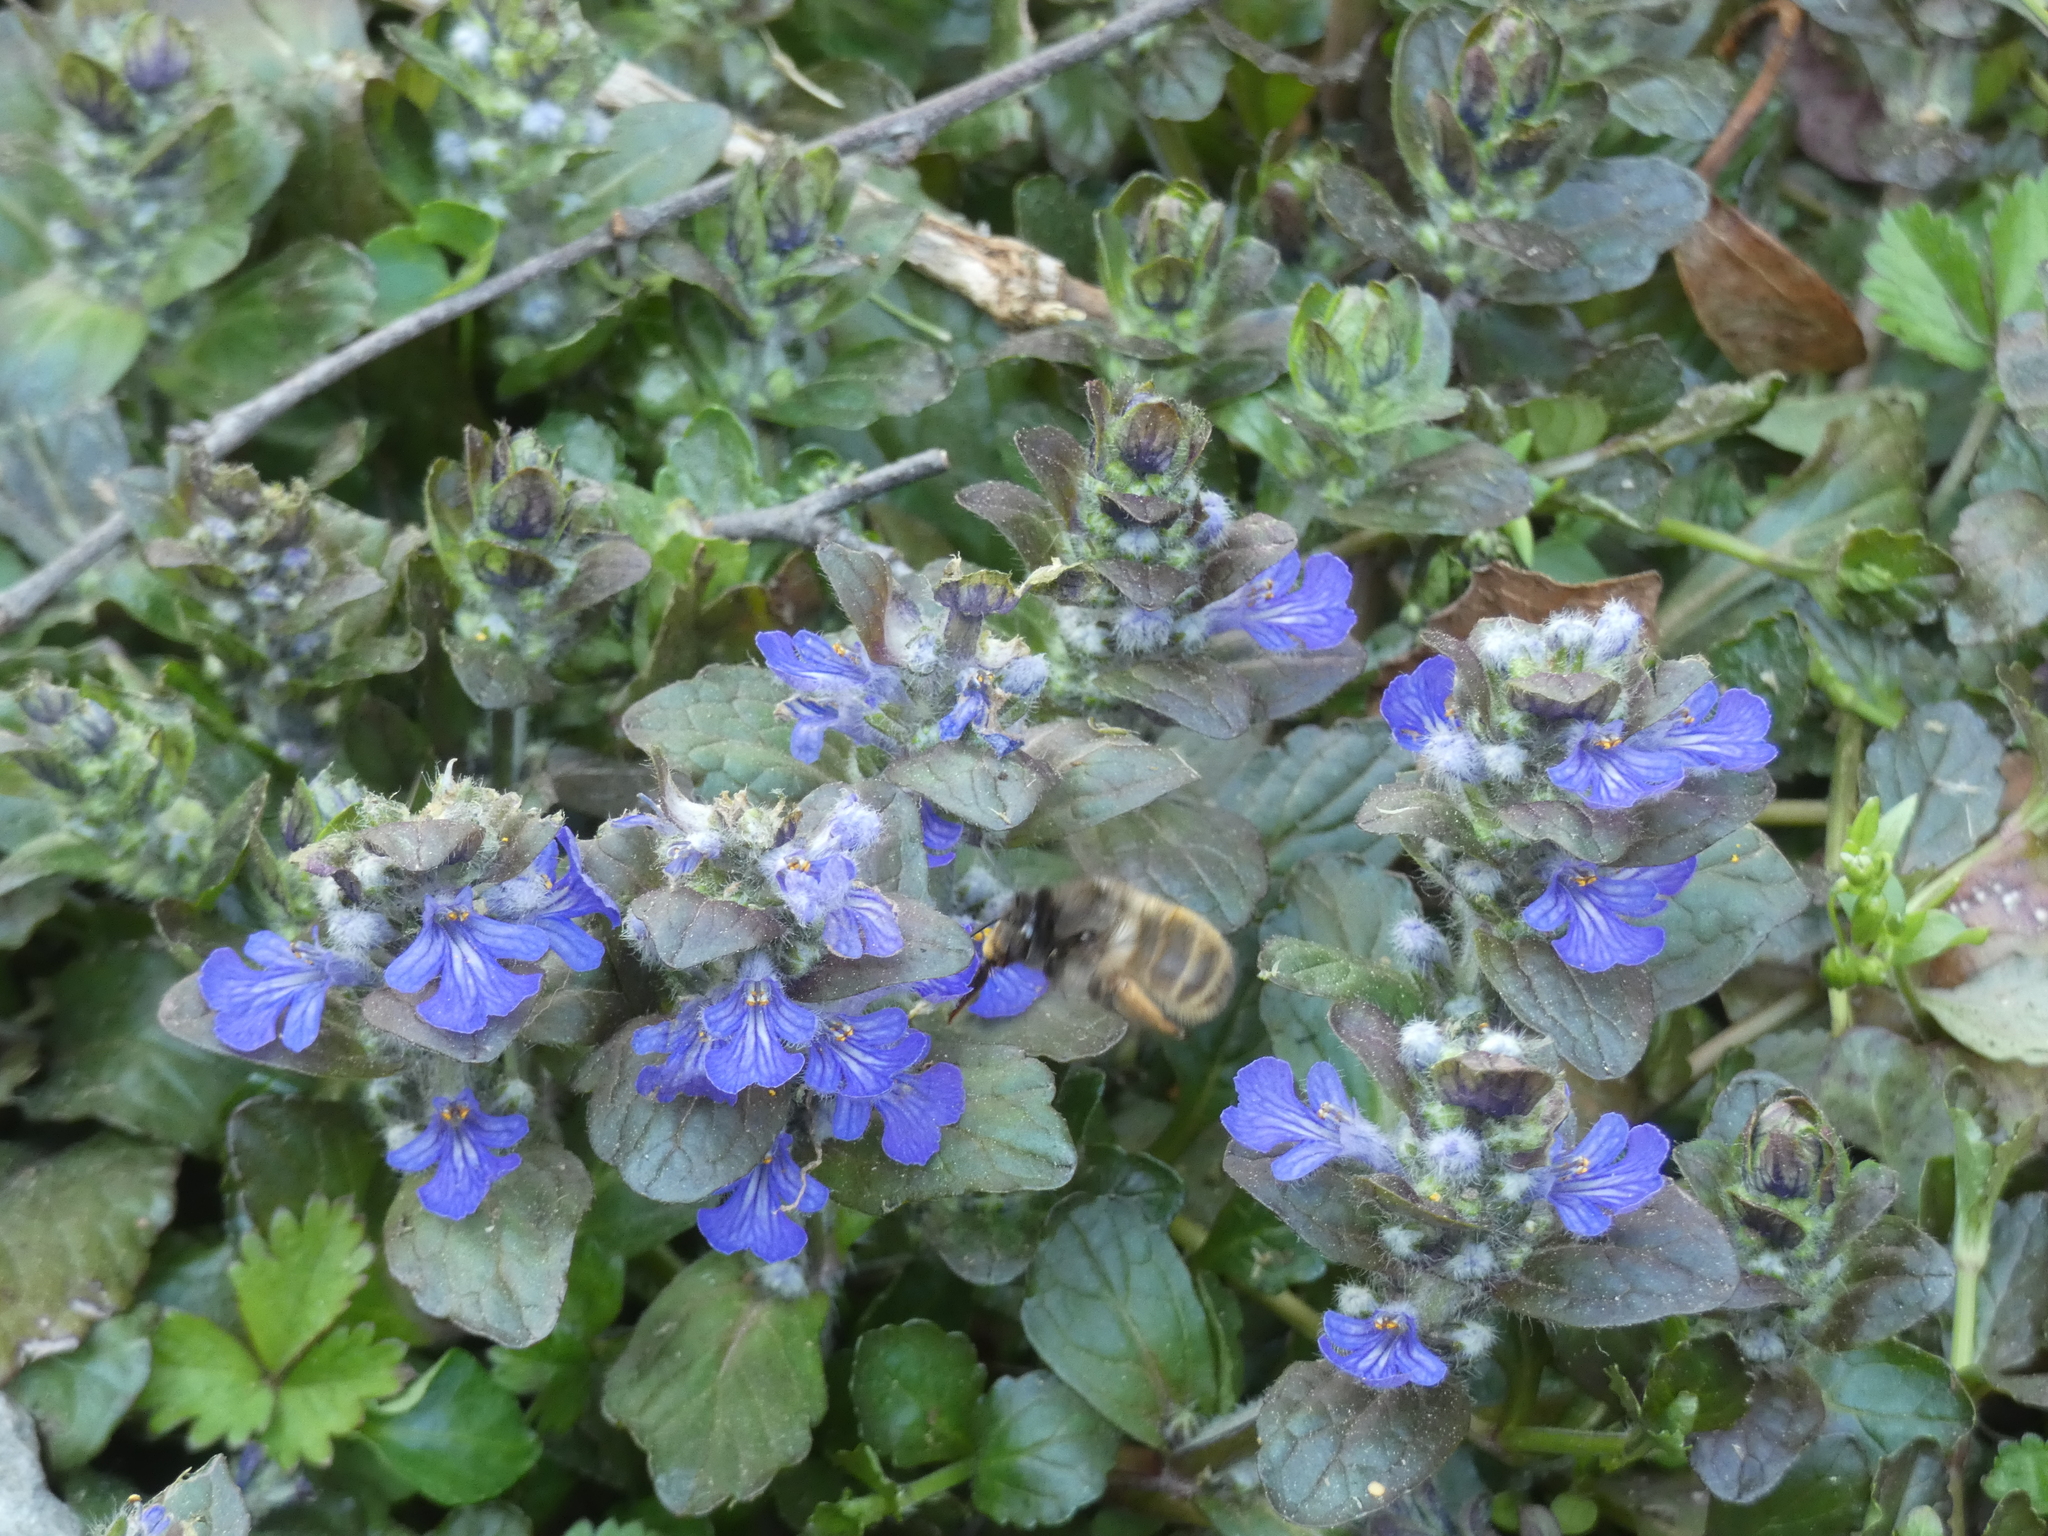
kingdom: Animalia
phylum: Arthropoda
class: Insecta
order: Hymenoptera
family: Apidae
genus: Anthophora
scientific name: Anthophora villosula
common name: Asian shaggy digger
